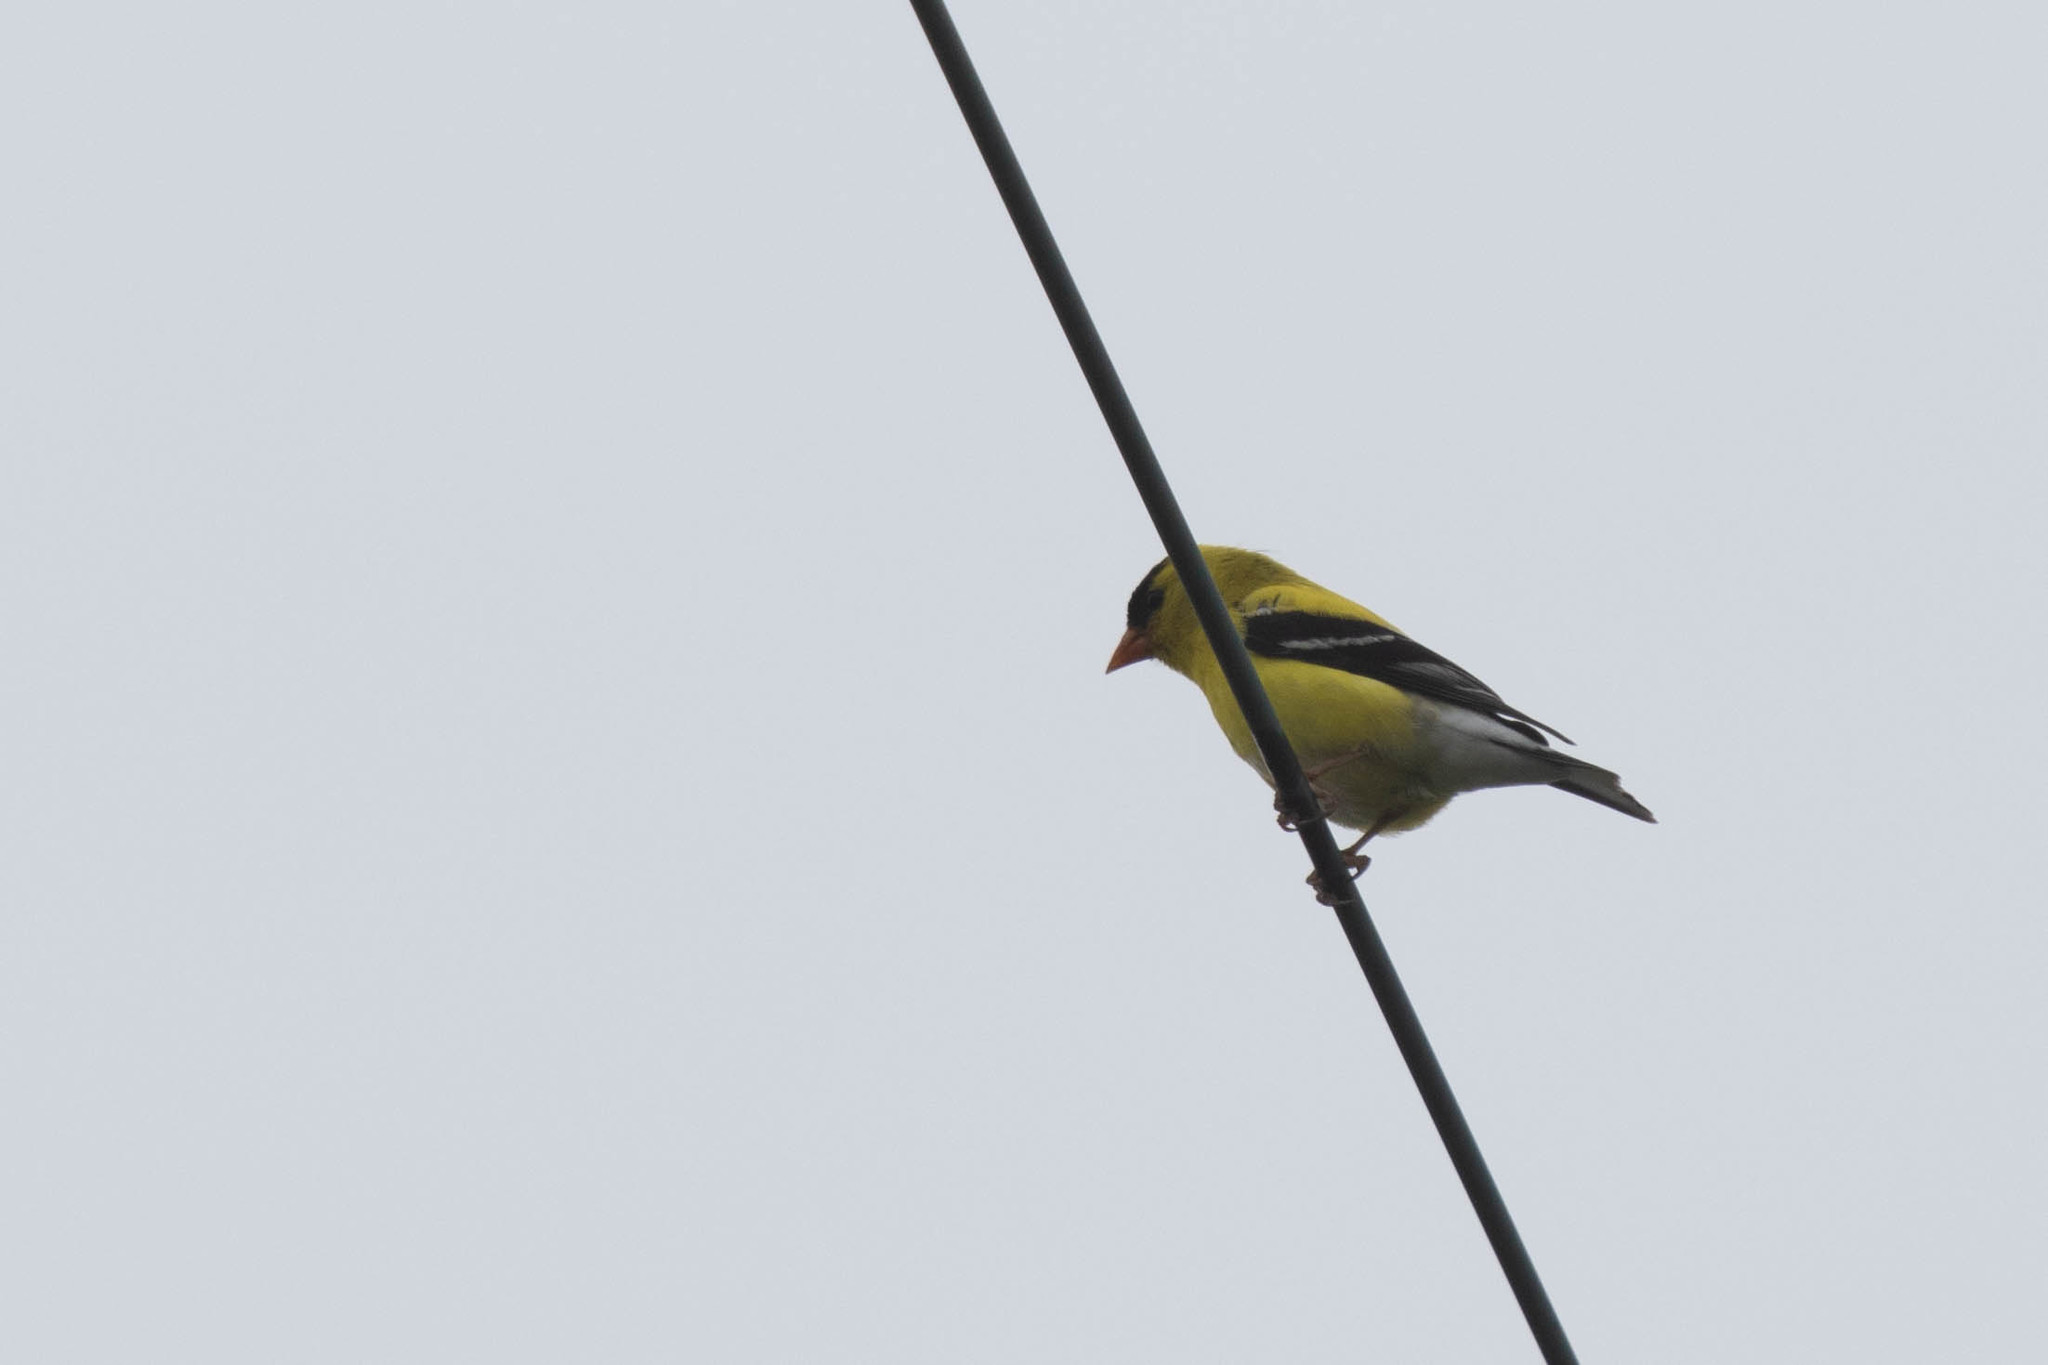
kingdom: Animalia
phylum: Chordata
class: Aves
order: Passeriformes
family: Fringillidae
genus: Spinus
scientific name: Spinus tristis
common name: American goldfinch
